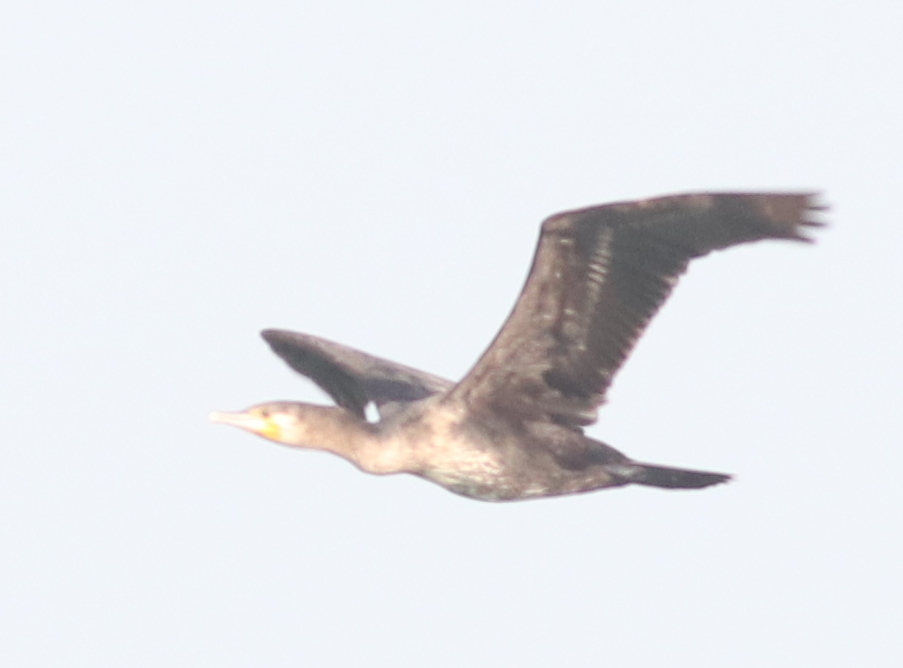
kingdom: Animalia
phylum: Chordata
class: Aves
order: Suliformes
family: Phalacrocoracidae
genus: Phalacrocorax
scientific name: Phalacrocorax carbo
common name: Great cormorant
